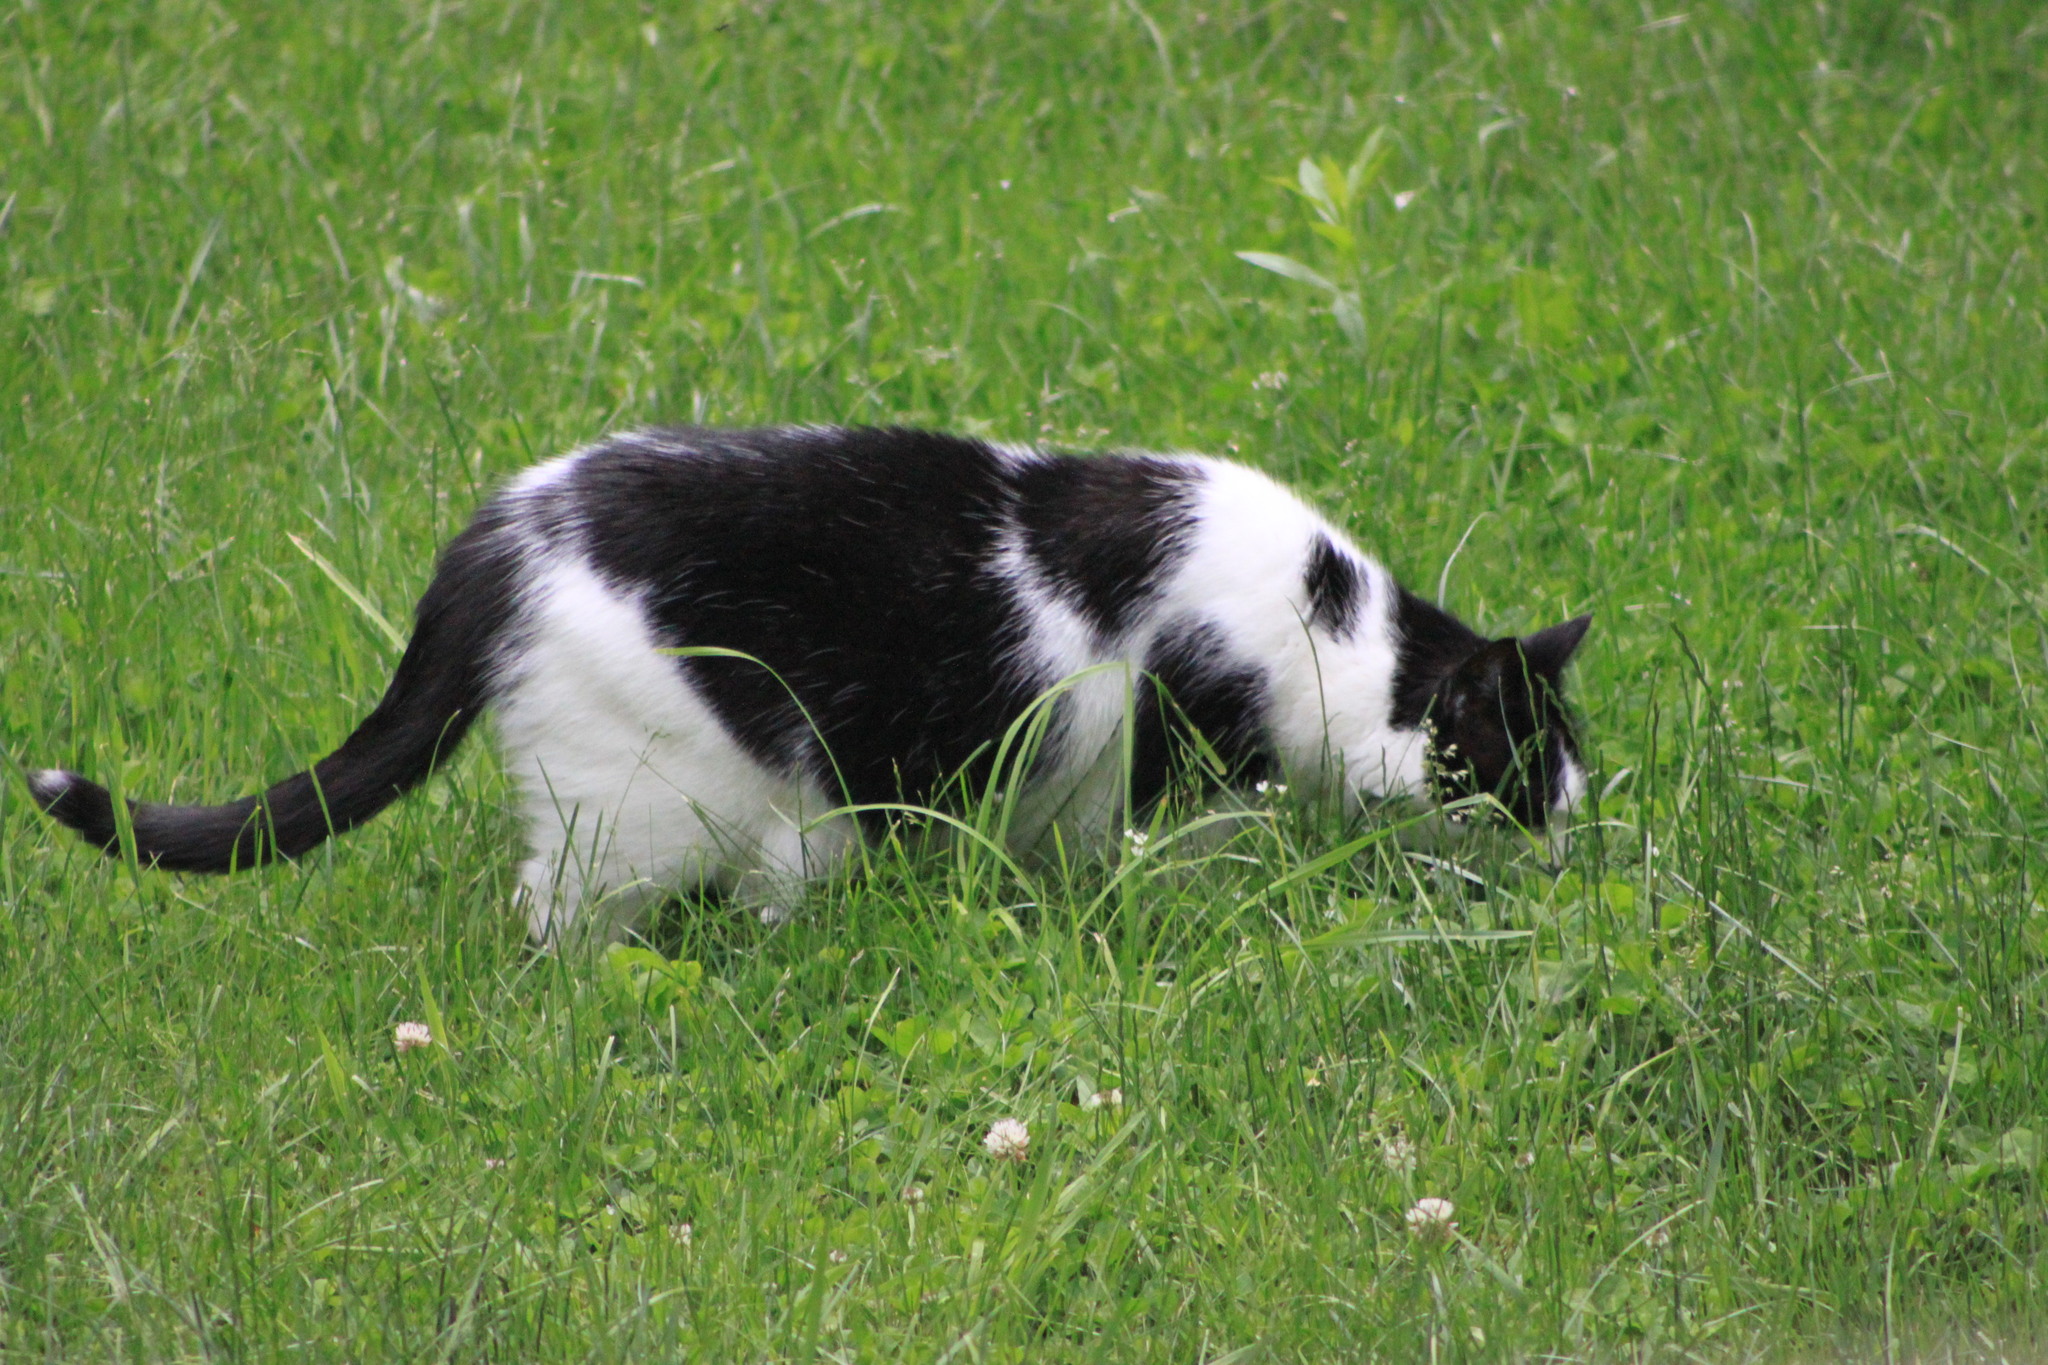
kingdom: Animalia
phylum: Chordata
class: Mammalia
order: Carnivora
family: Felidae
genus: Felis
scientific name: Felis catus
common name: Domestic cat
